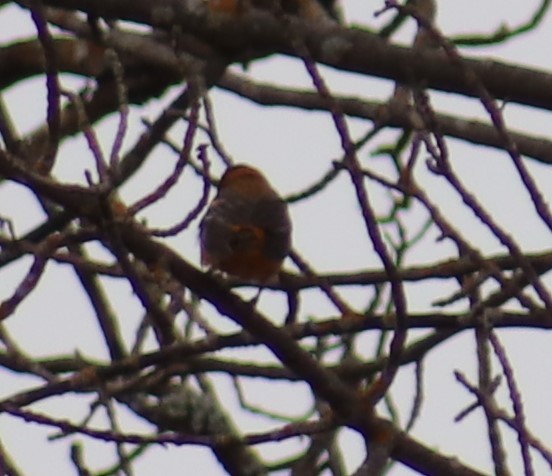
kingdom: Animalia
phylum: Chordata
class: Aves
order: Passeriformes
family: Icteridae
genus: Icterus
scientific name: Icterus galbula
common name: Baltimore oriole
